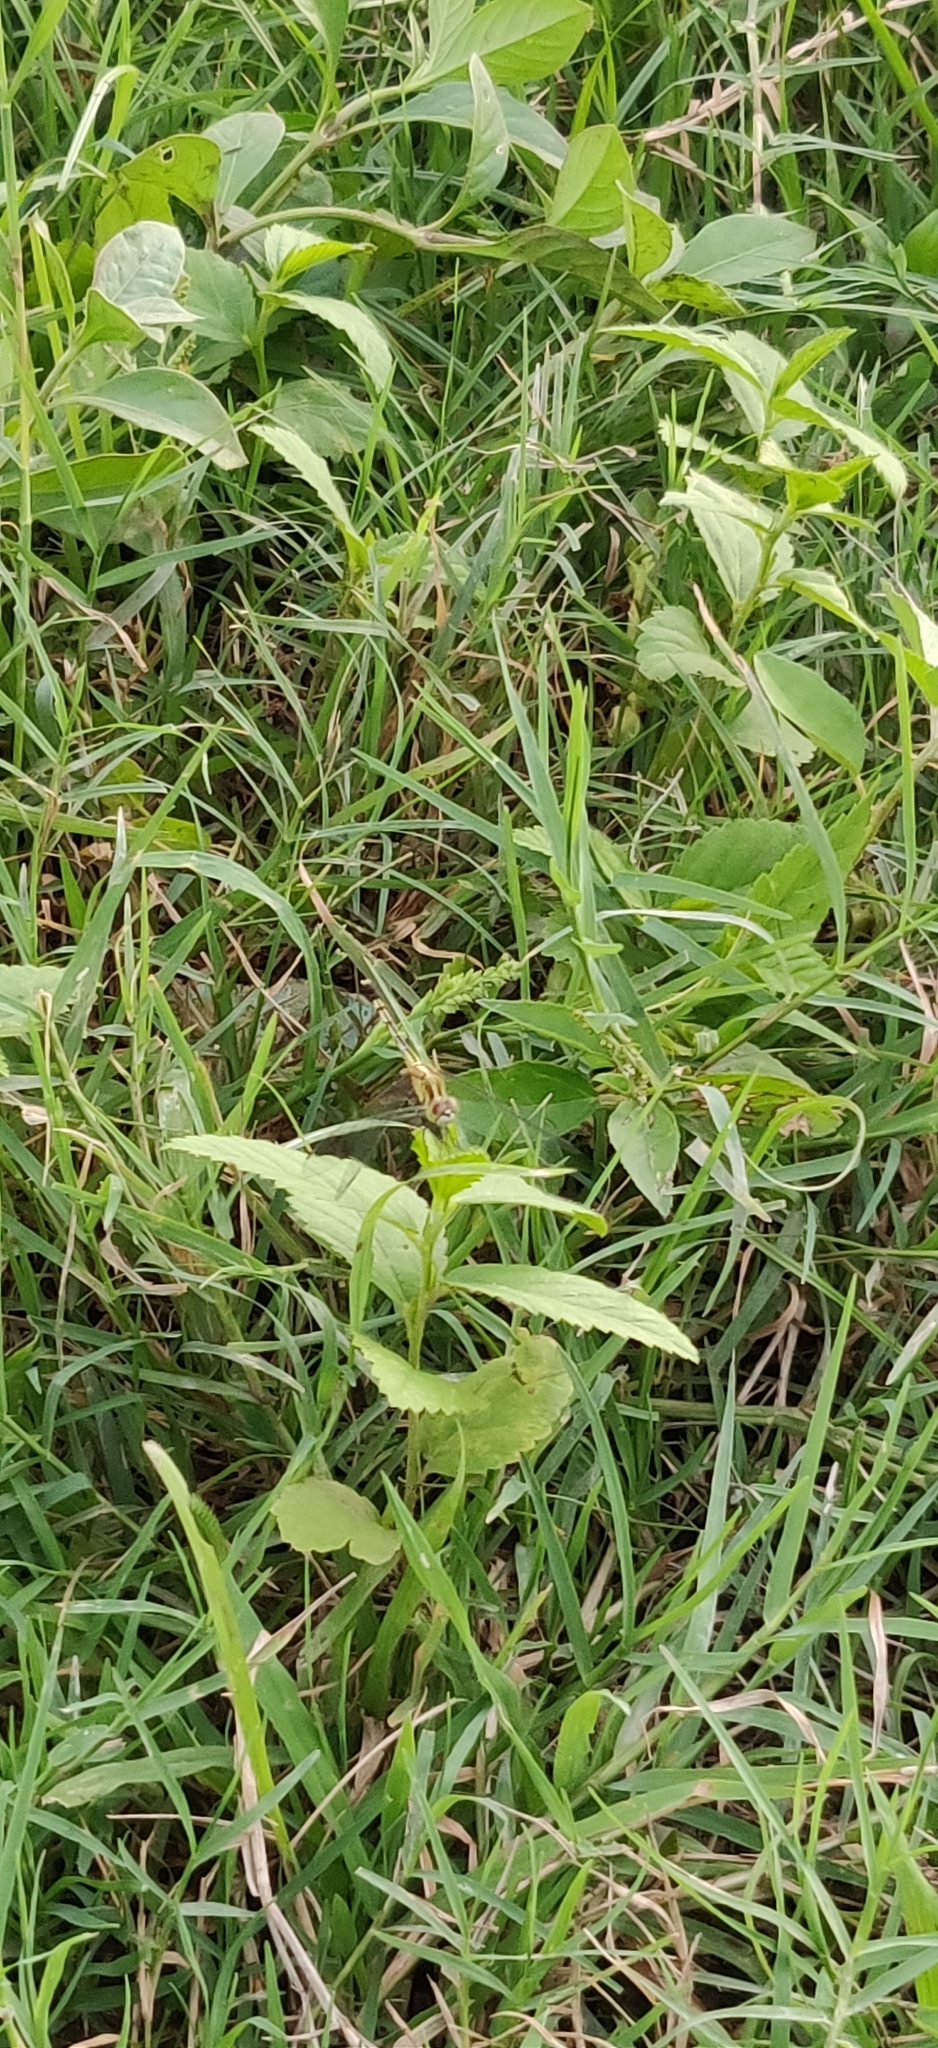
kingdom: Animalia
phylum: Arthropoda
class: Insecta
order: Odonata
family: Libellulidae
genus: Diplacodes
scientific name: Diplacodes trivialis
